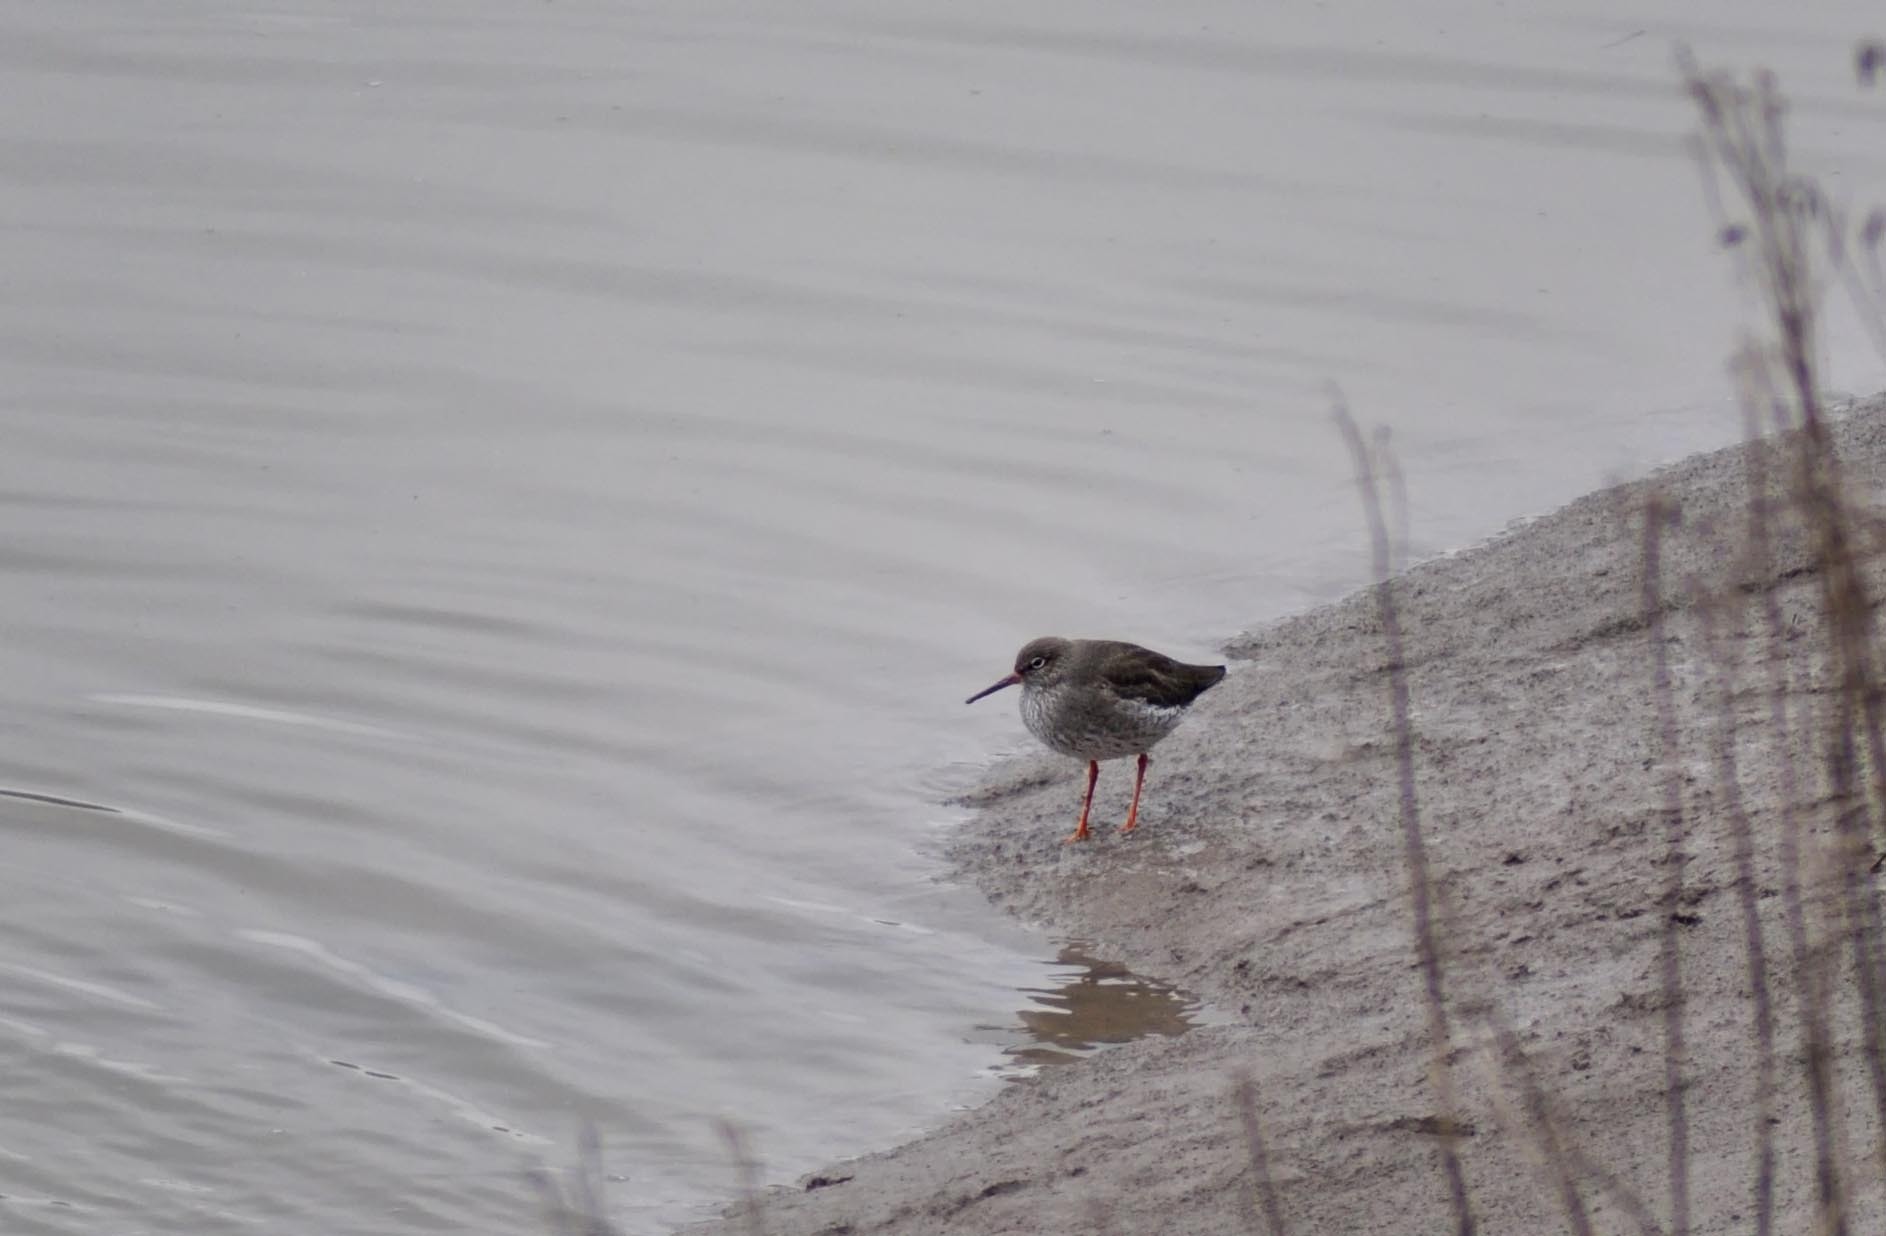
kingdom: Animalia
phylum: Chordata
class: Aves
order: Charadriiformes
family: Scolopacidae
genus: Tringa
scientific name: Tringa totanus
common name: Common redshank
